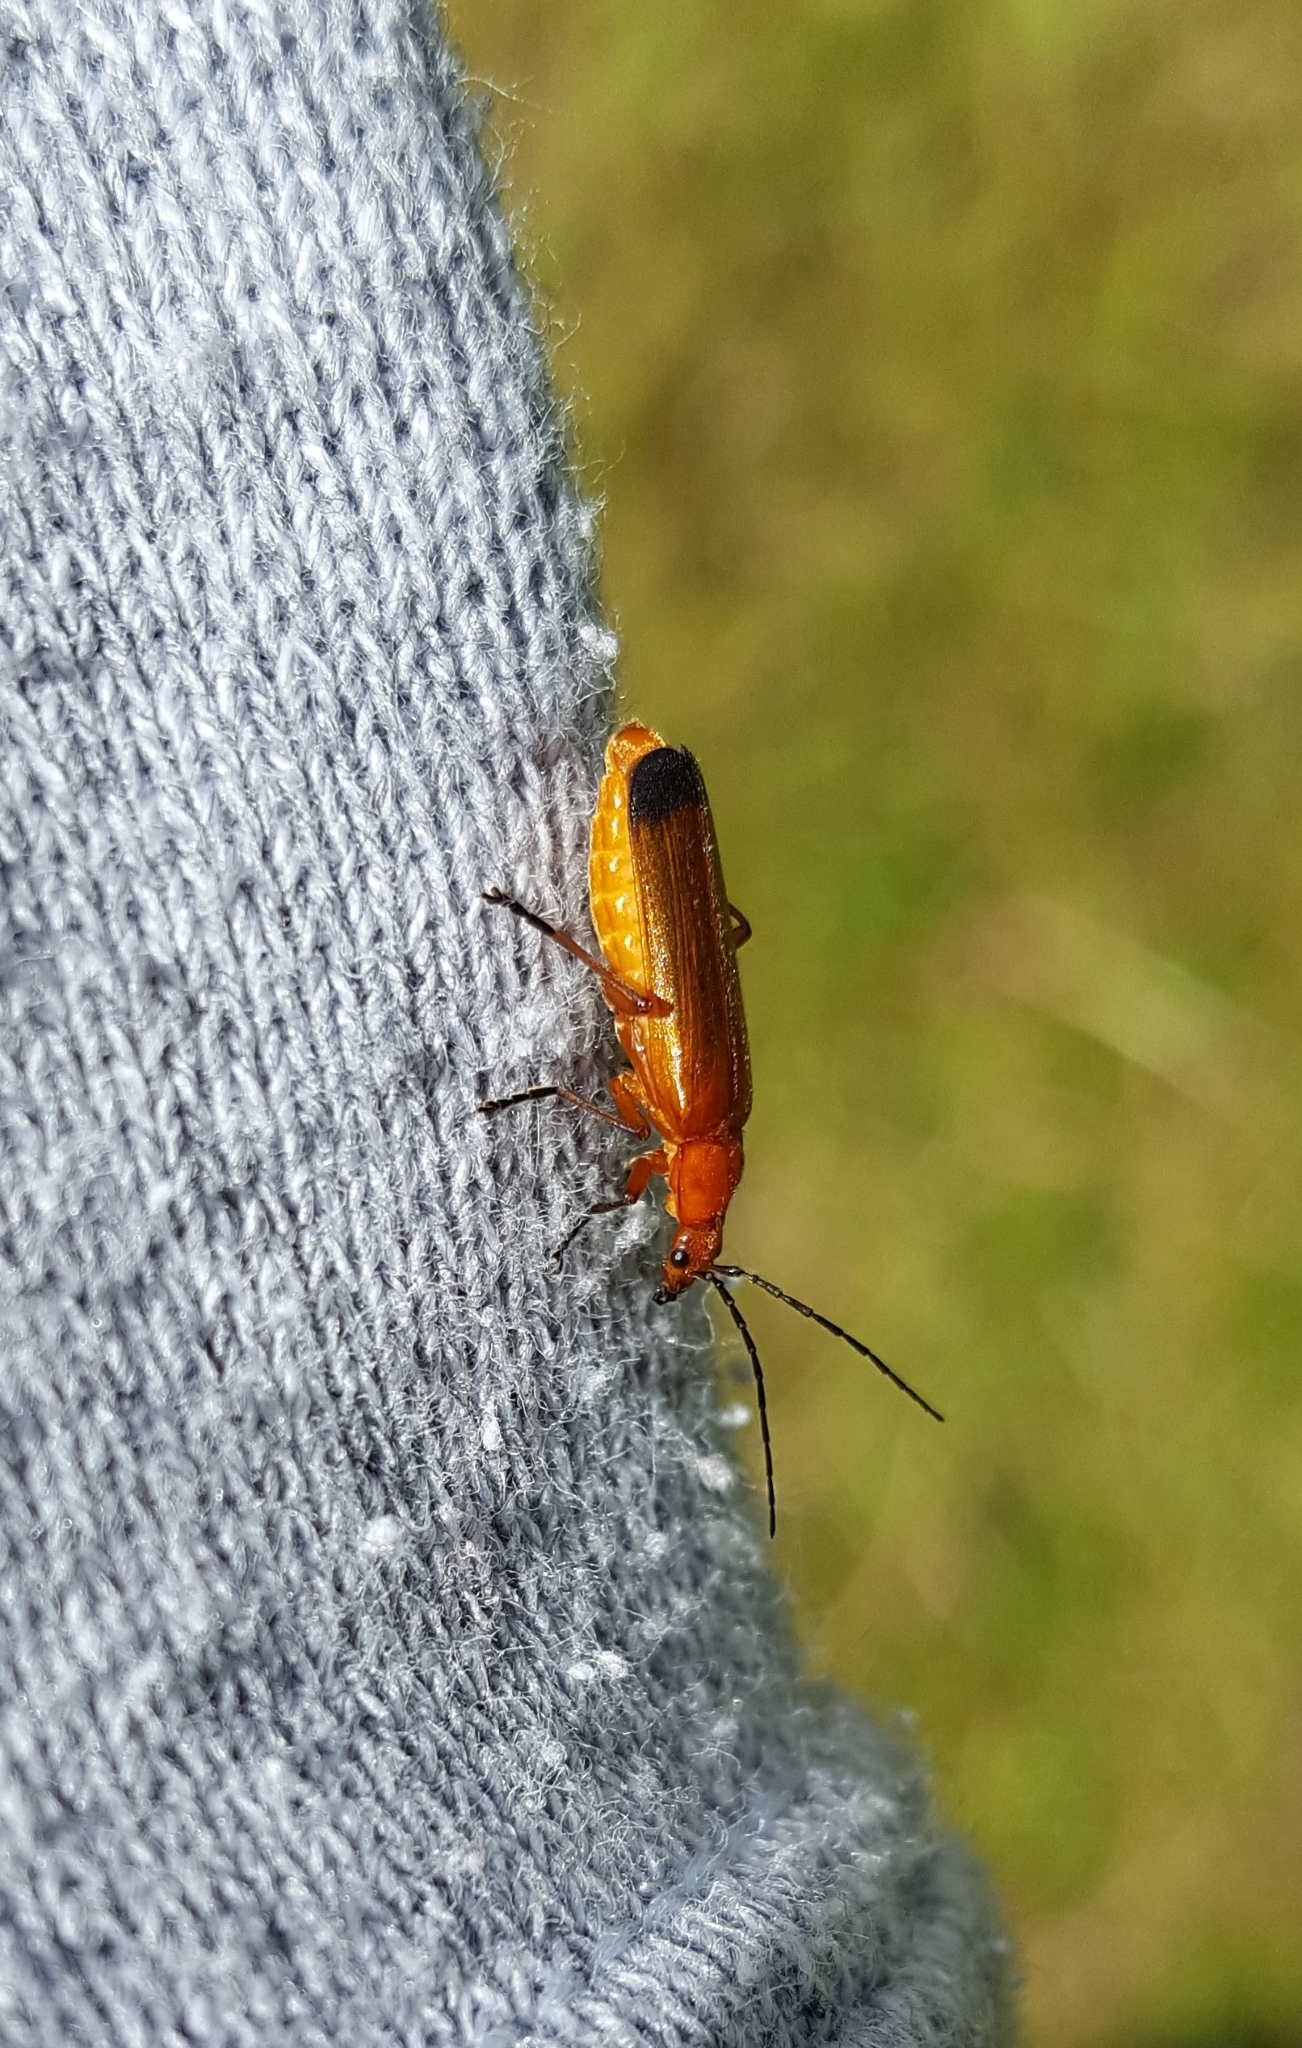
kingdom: Animalia
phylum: Arthropoda
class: Insecta
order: Coleoptera
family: Cantharidae
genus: Rhagonycha
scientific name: Rhagonycha fulva
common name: Common red soldier beetle
